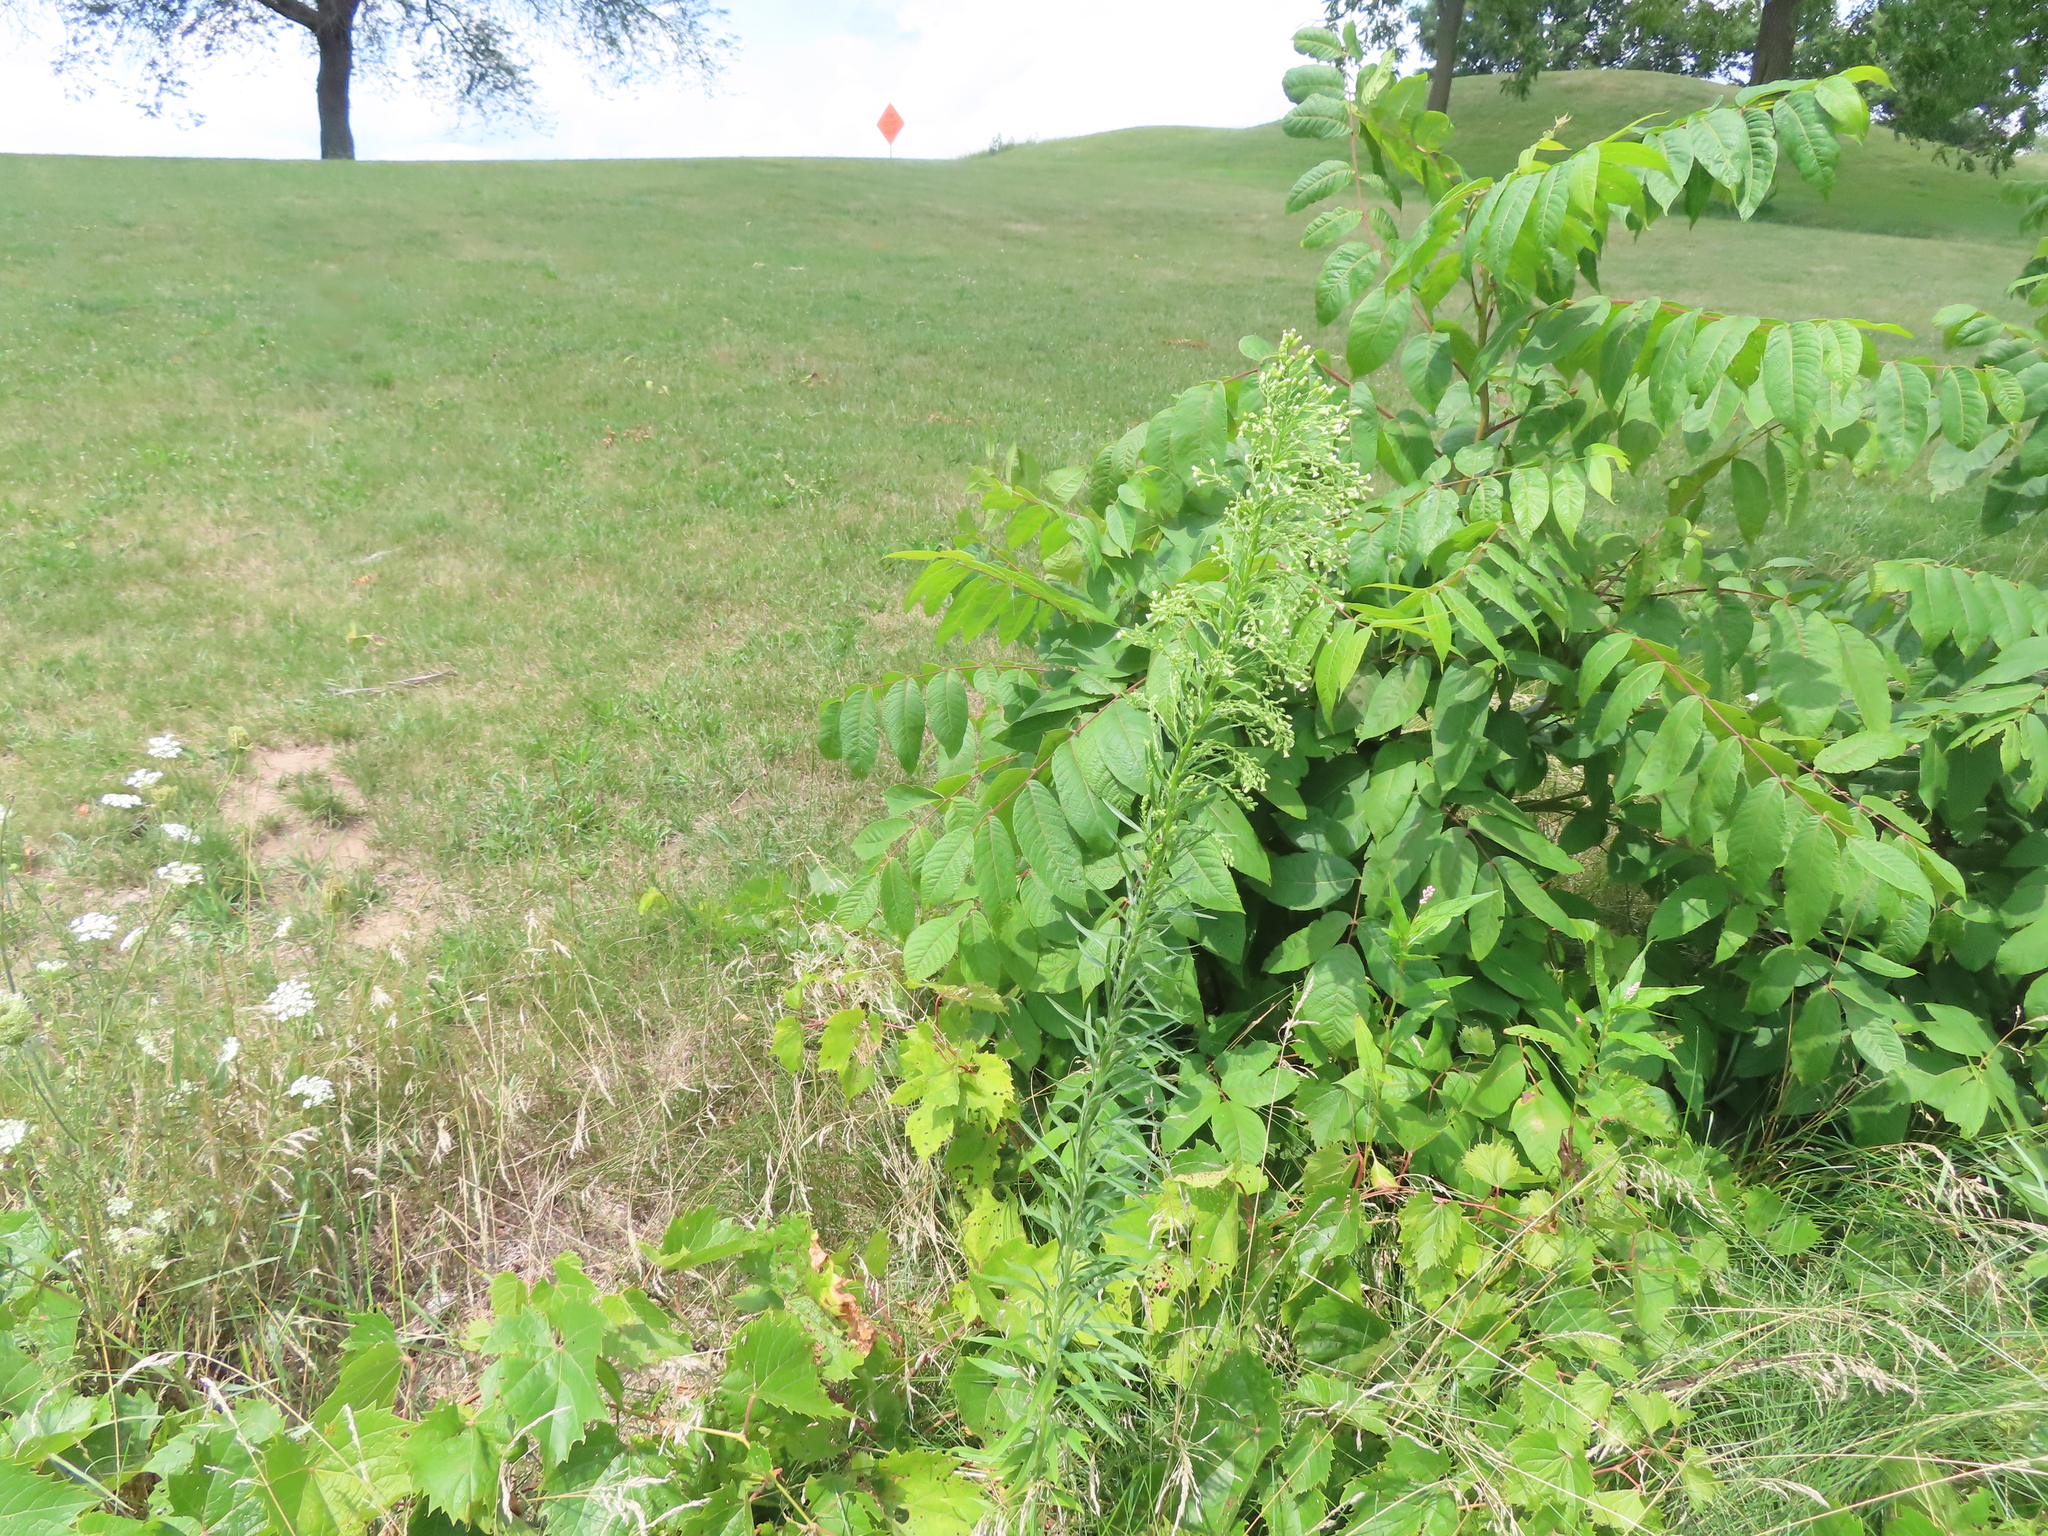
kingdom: Plantae
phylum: Tracheophyta
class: Magnoliopsida
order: Asterales
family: Asteraceae
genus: Erigeron
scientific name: Erigeron canadensis
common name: Canadian fleabane
